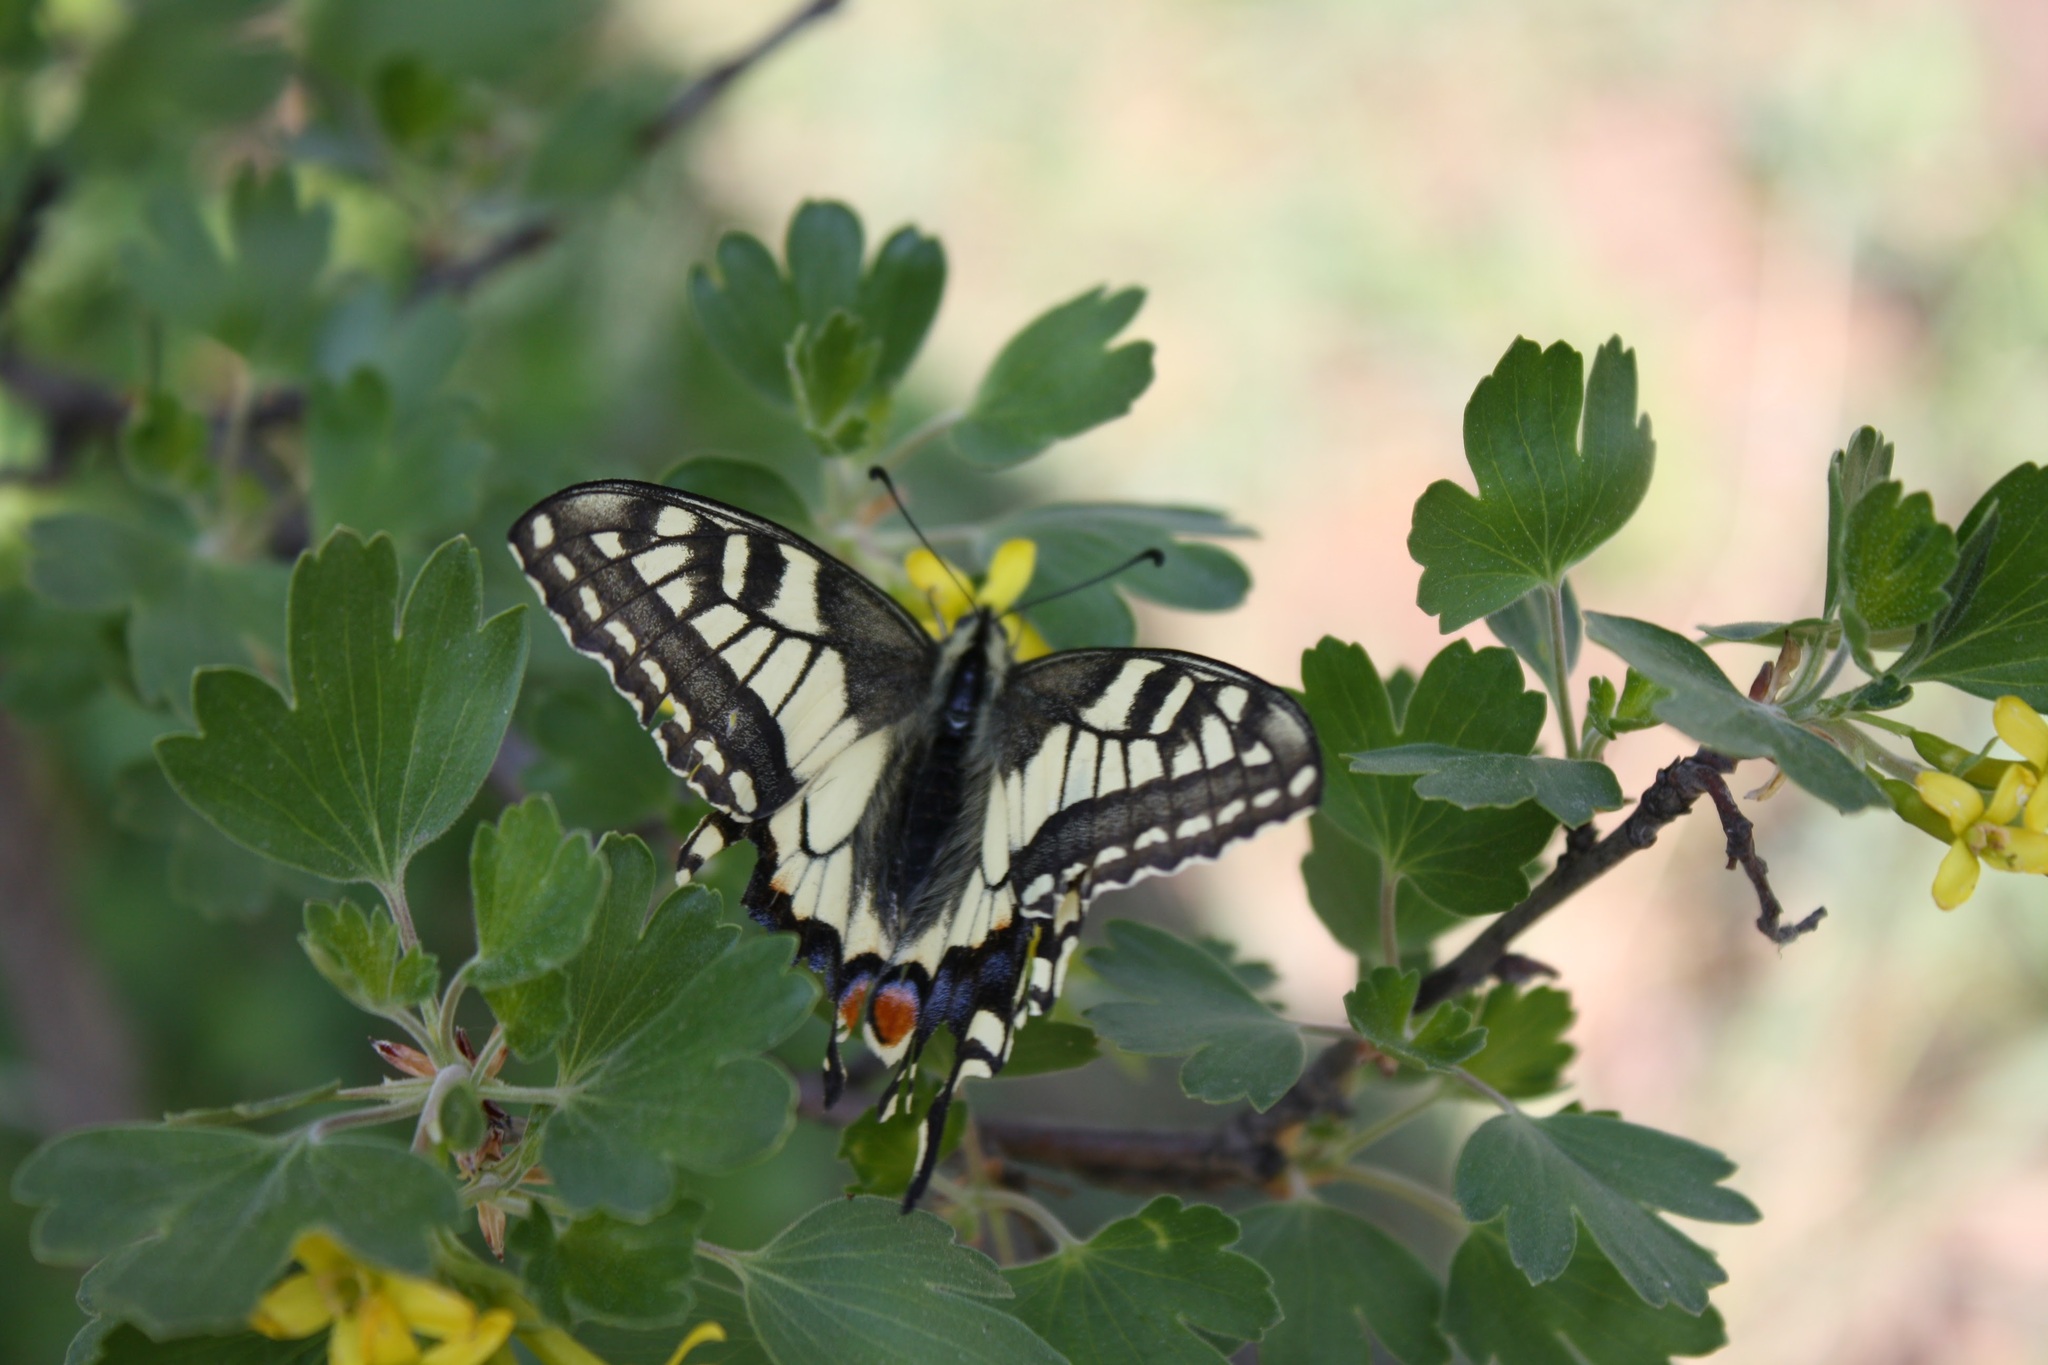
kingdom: Animalia
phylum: Arthropoda
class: Insecta
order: Lepidoptera
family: Papilionidae
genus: Papilio
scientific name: Papilio machaon
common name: Swallowtail
